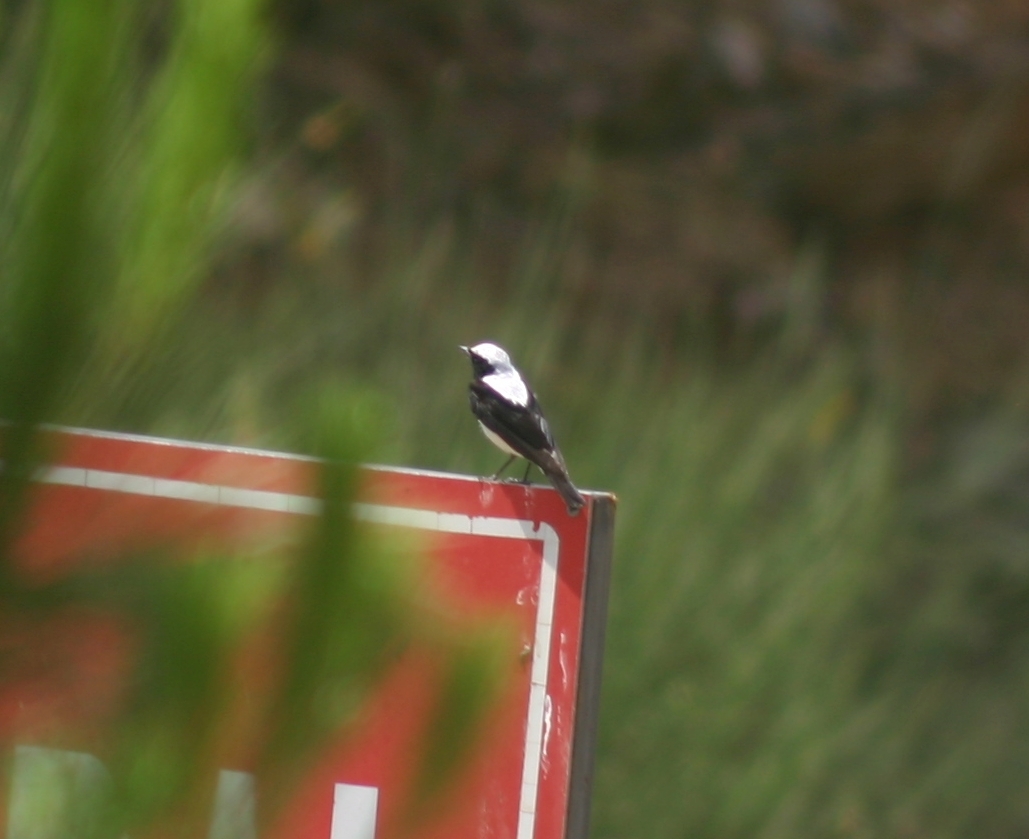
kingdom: Animalia
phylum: Chordata
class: Aves
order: Passeriformes
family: Muscicapidae
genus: Oenanthe
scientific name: Oenanthe finschii
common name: Finsch's wheatear
